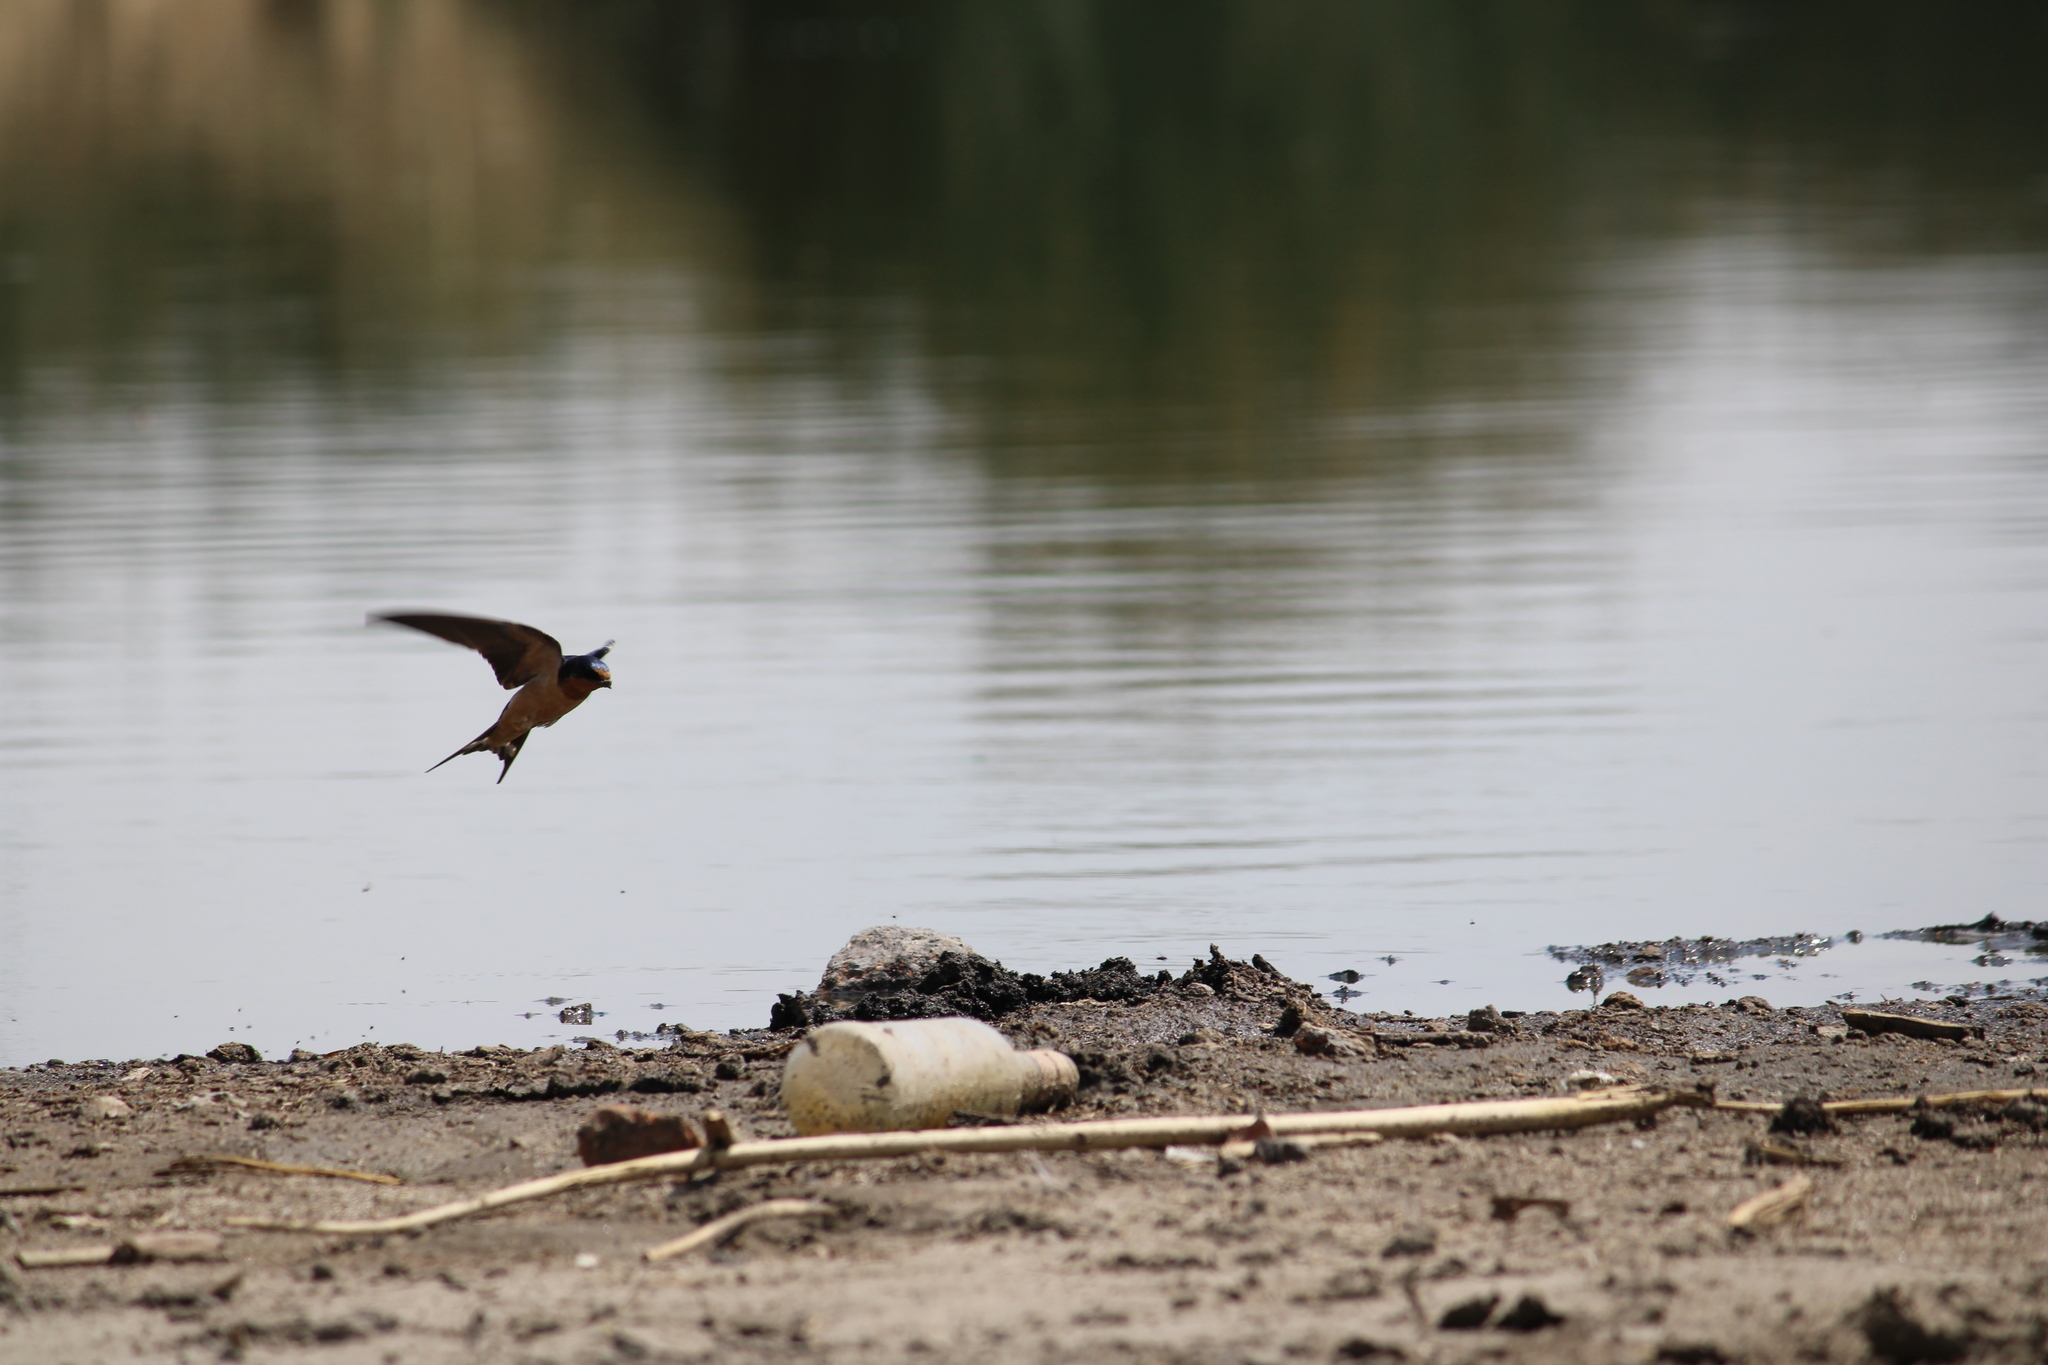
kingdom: Animalia
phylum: Chordata
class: Aves
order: Passeriformes
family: Hirundinidae
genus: Hirundo
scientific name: Hirundo rustica
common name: Barn swallow
